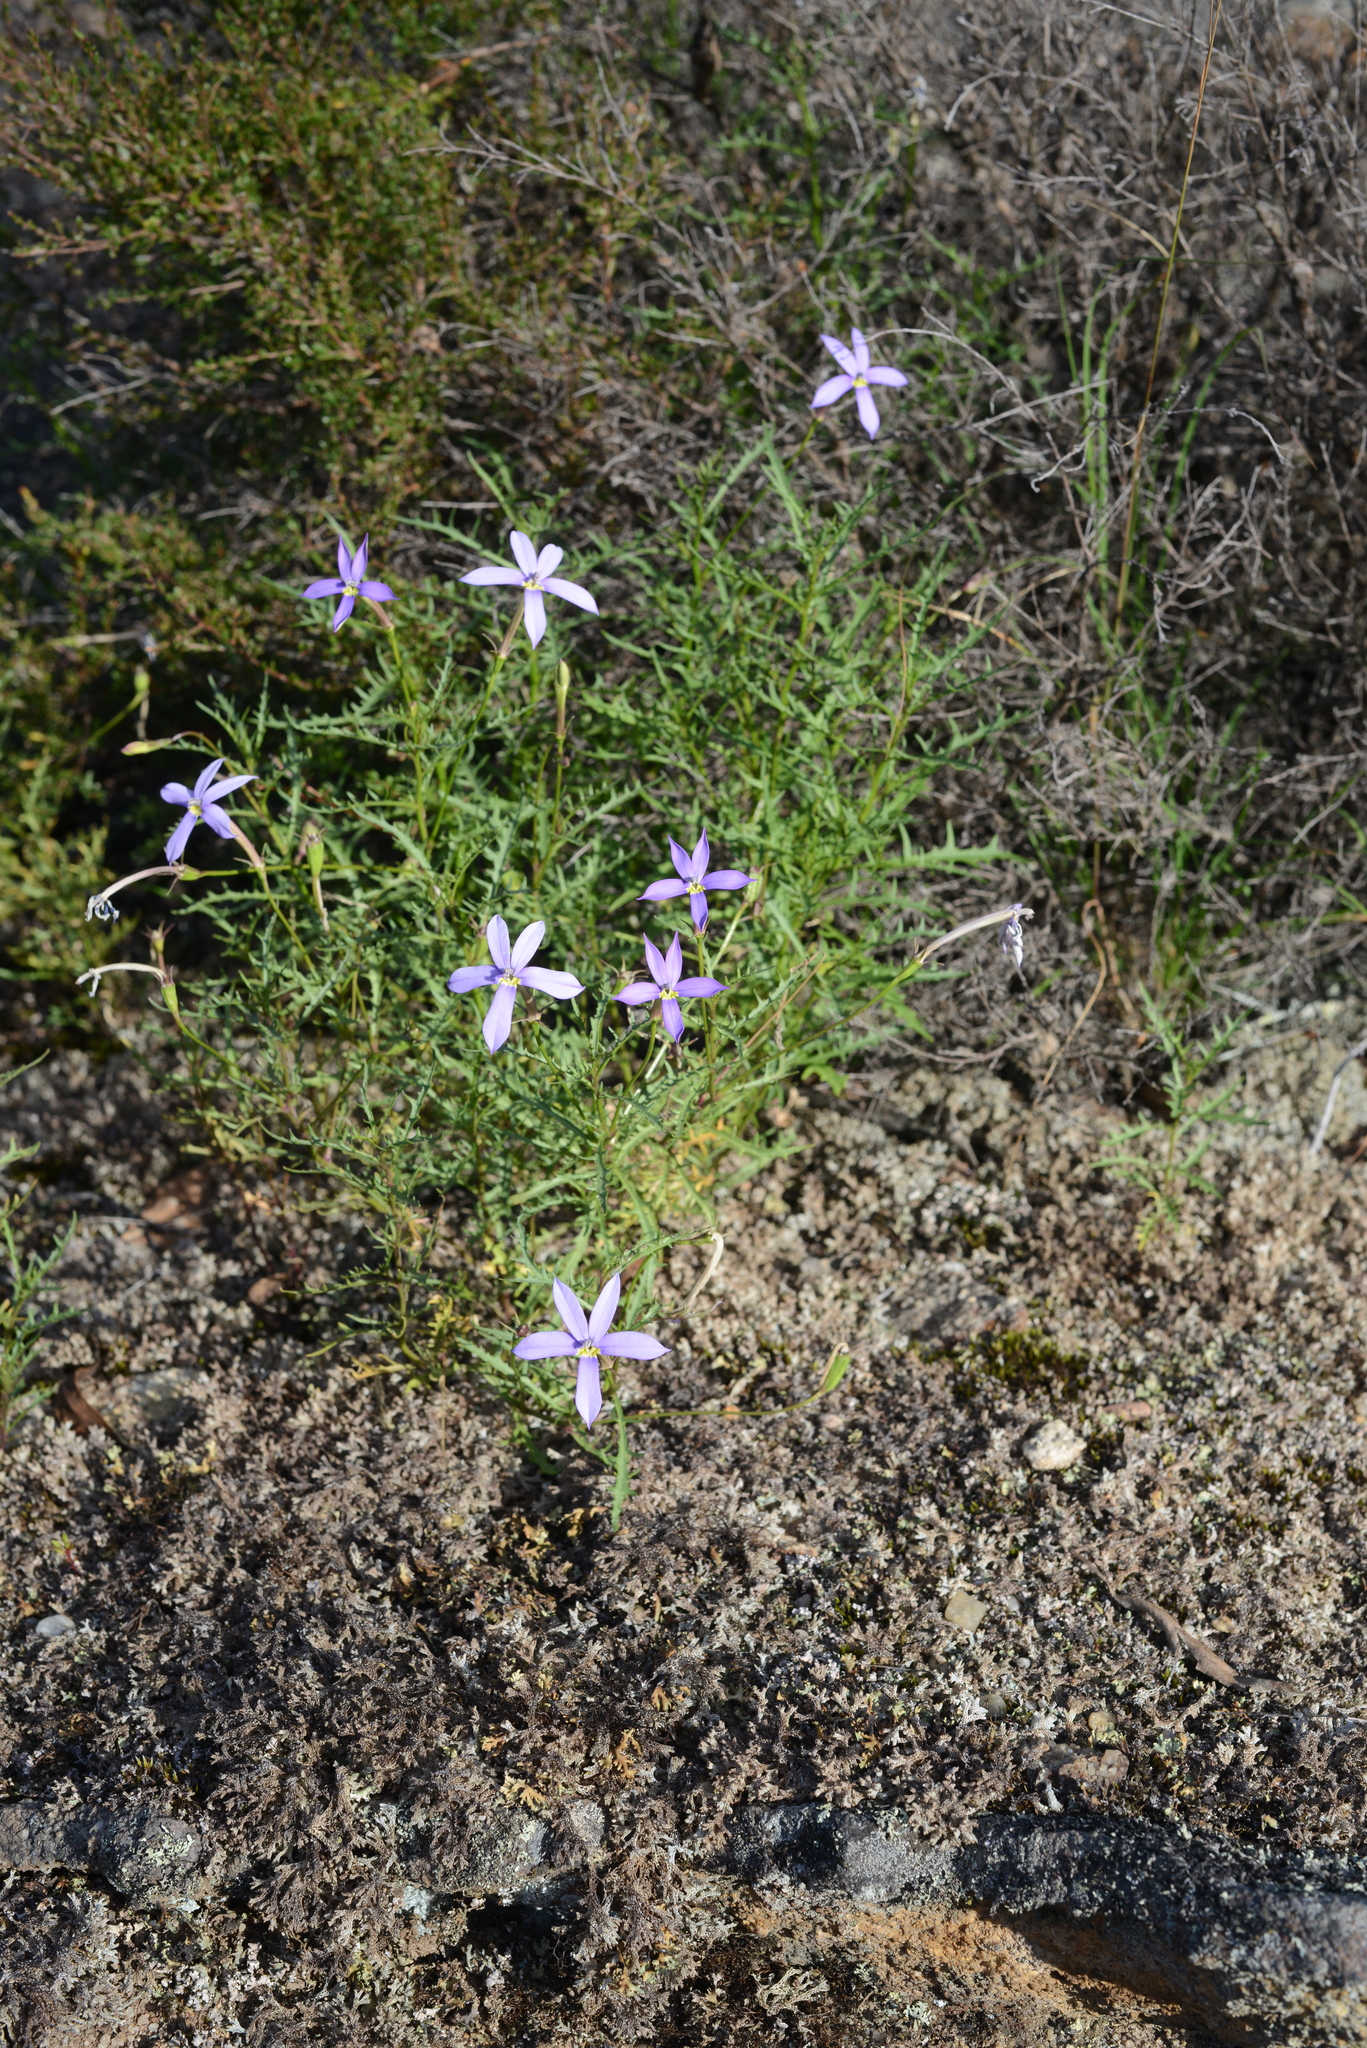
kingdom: Plantae
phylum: Tracheophyta
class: Magnoliopsida
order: Asterales
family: Campanulaceae
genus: Lithotoma
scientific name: Lithotoma axillaris
